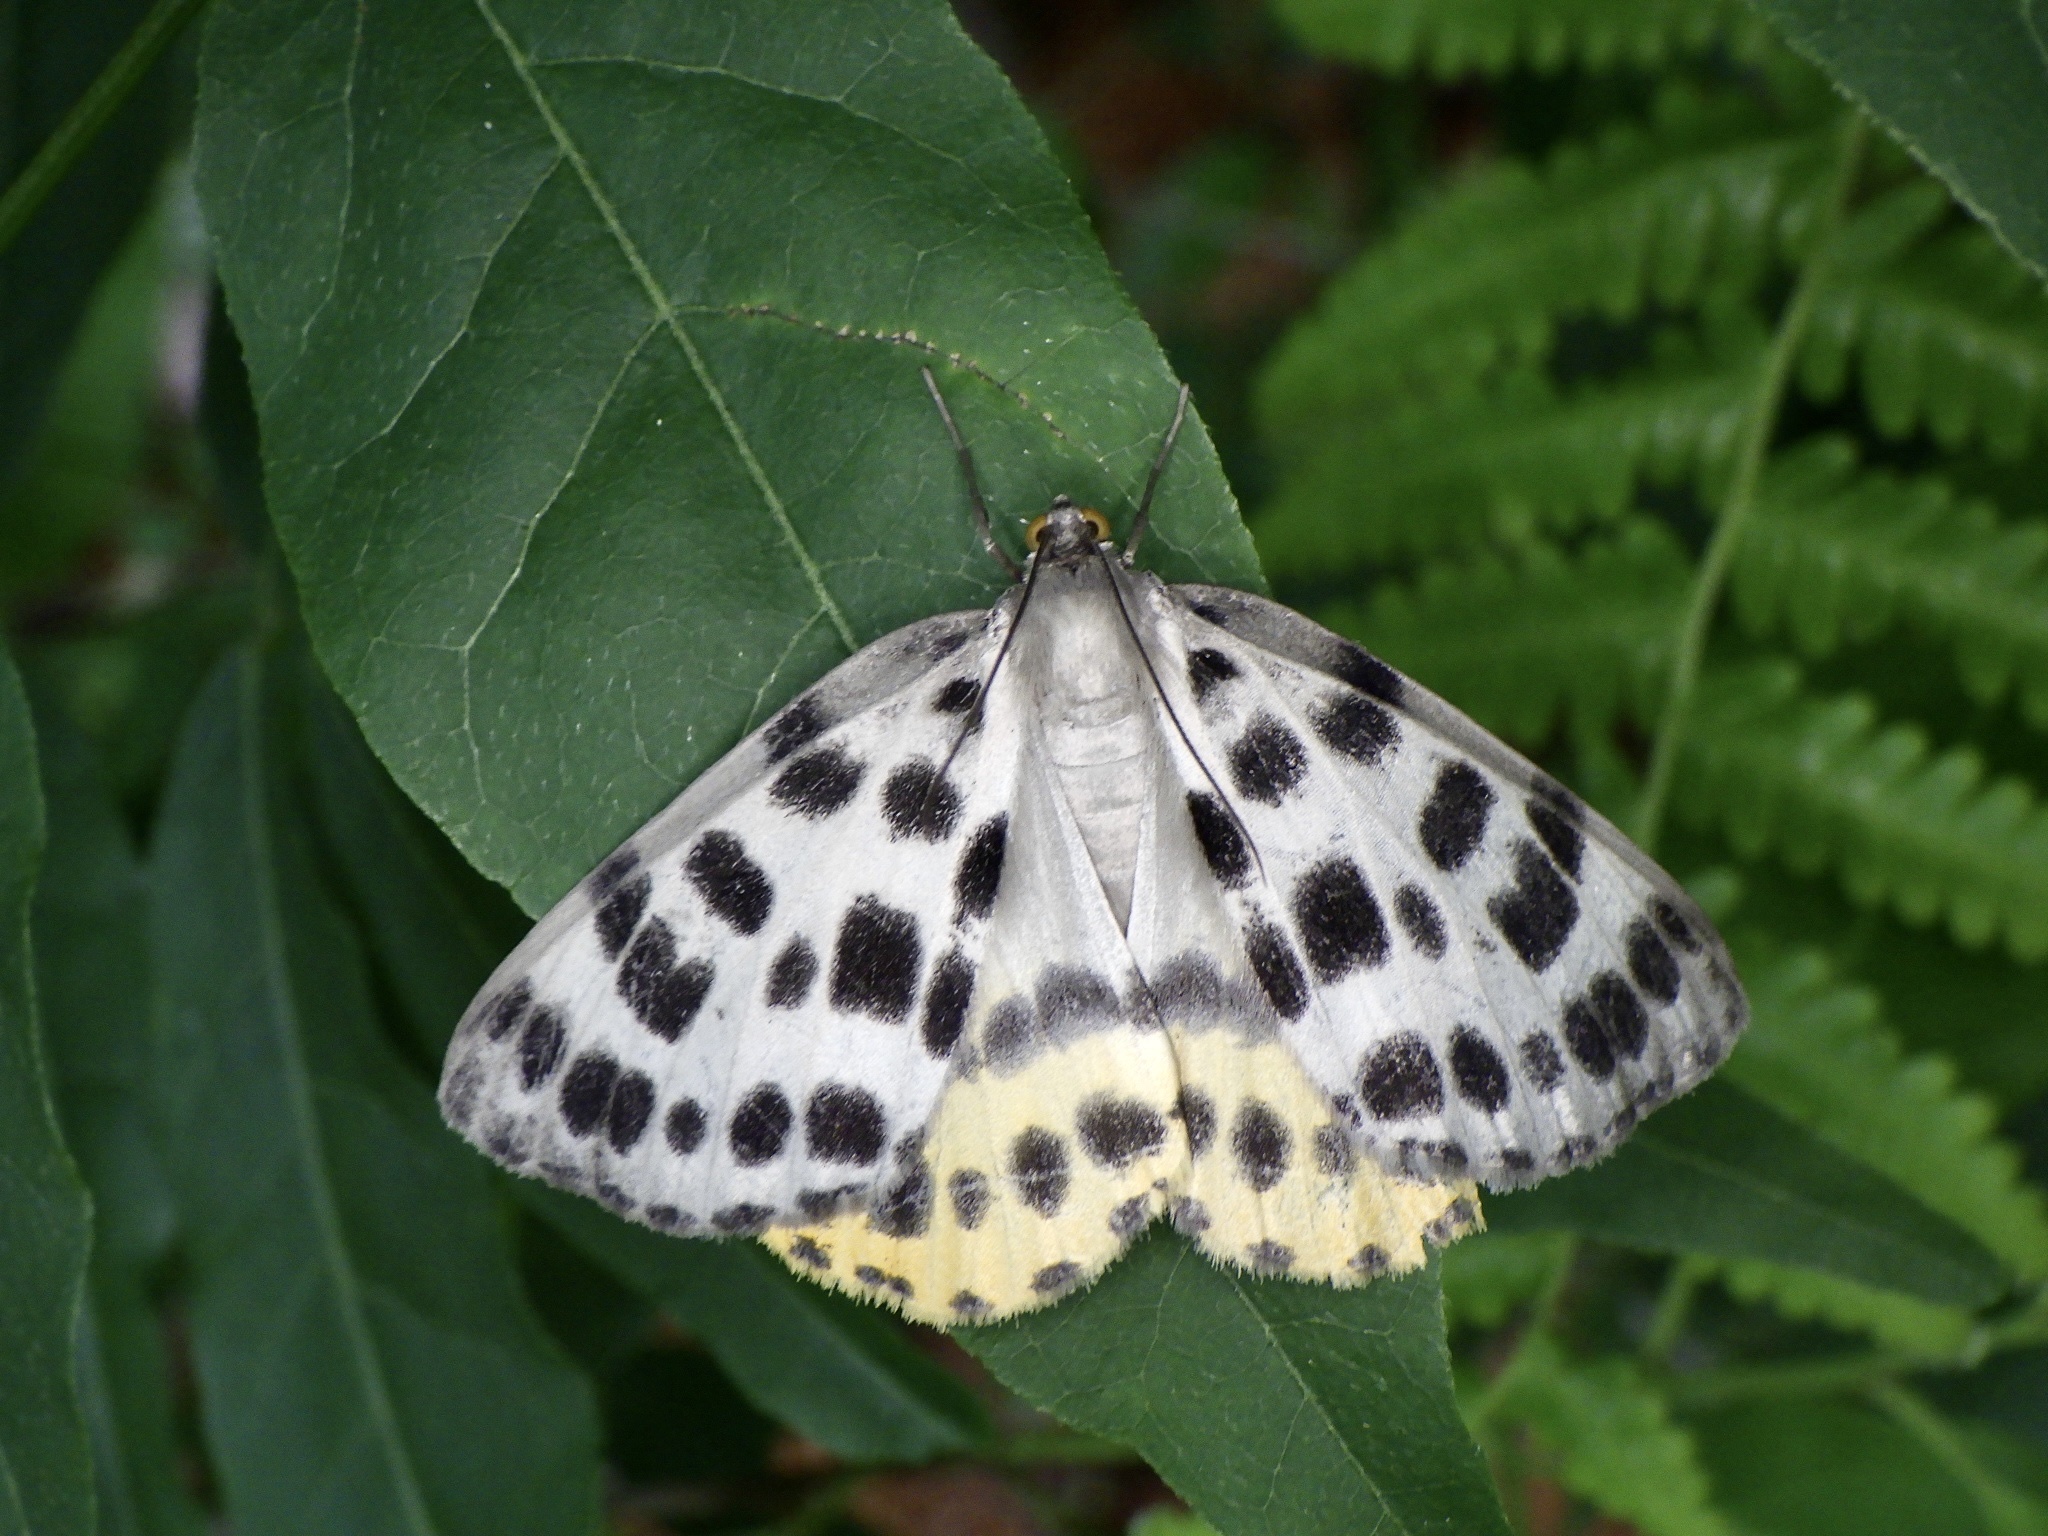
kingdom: Animalia
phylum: Arthropoda
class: Insecta
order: Lepidoptera
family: Geometridae
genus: Arichanna
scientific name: Arichanna
